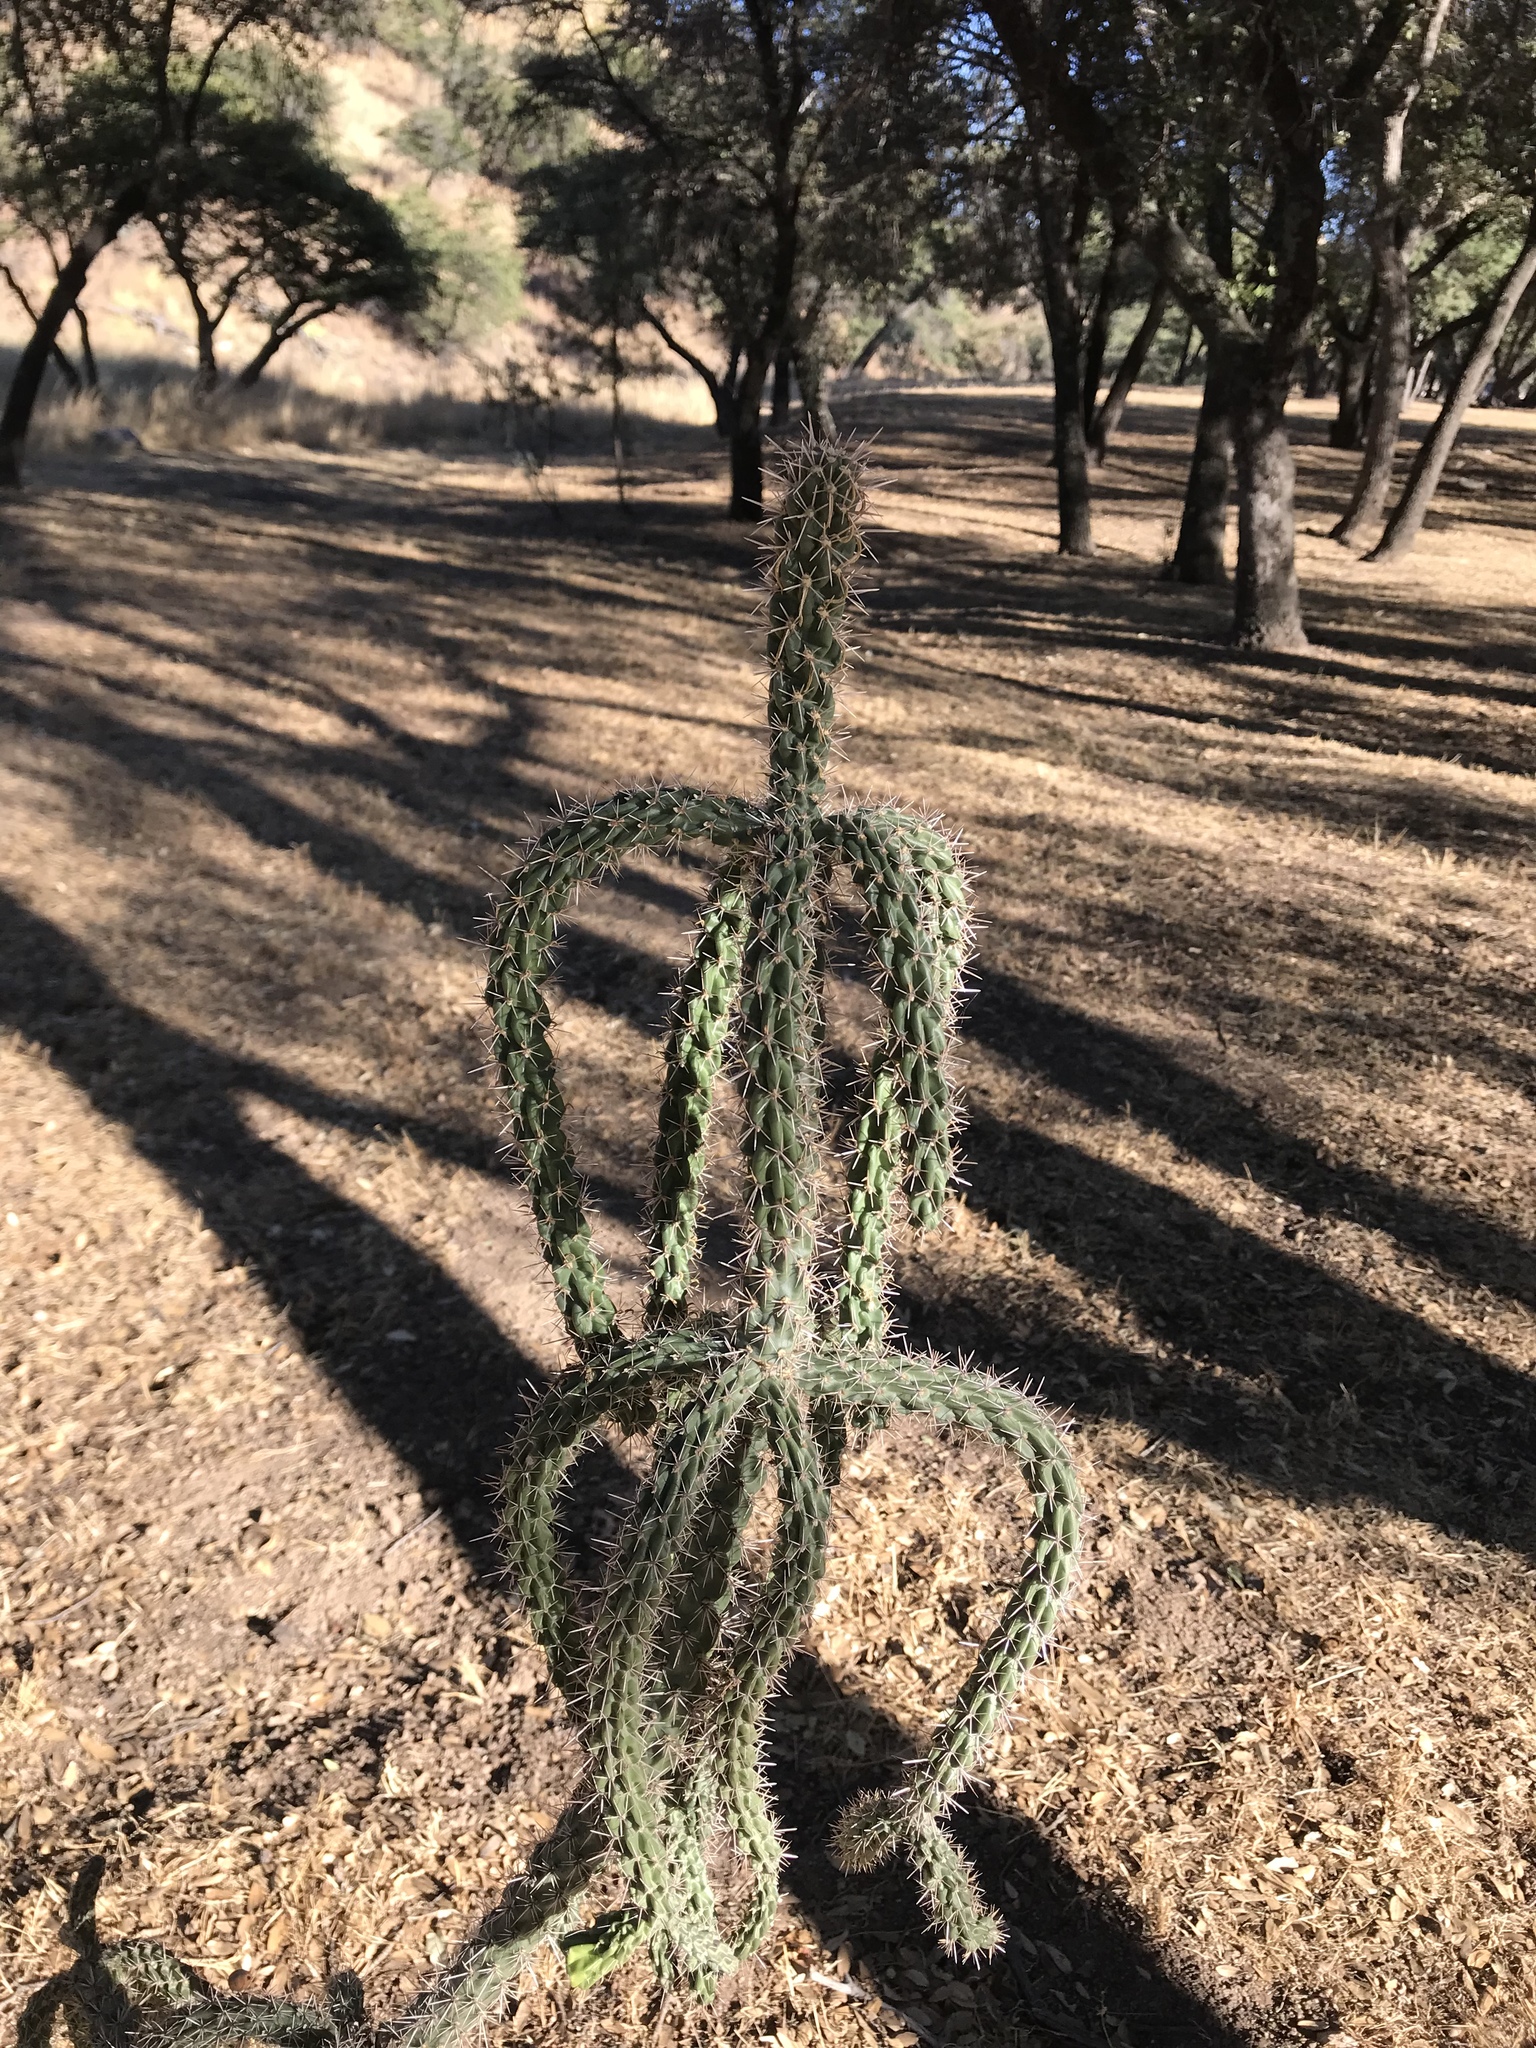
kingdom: Plantae
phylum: Tracheophyta
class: Magnoliopsida
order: Caryophyllales
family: Cactaceae
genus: Cylindropuntia
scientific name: Cylindropuntia imbricata
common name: Candelabrum cactus
